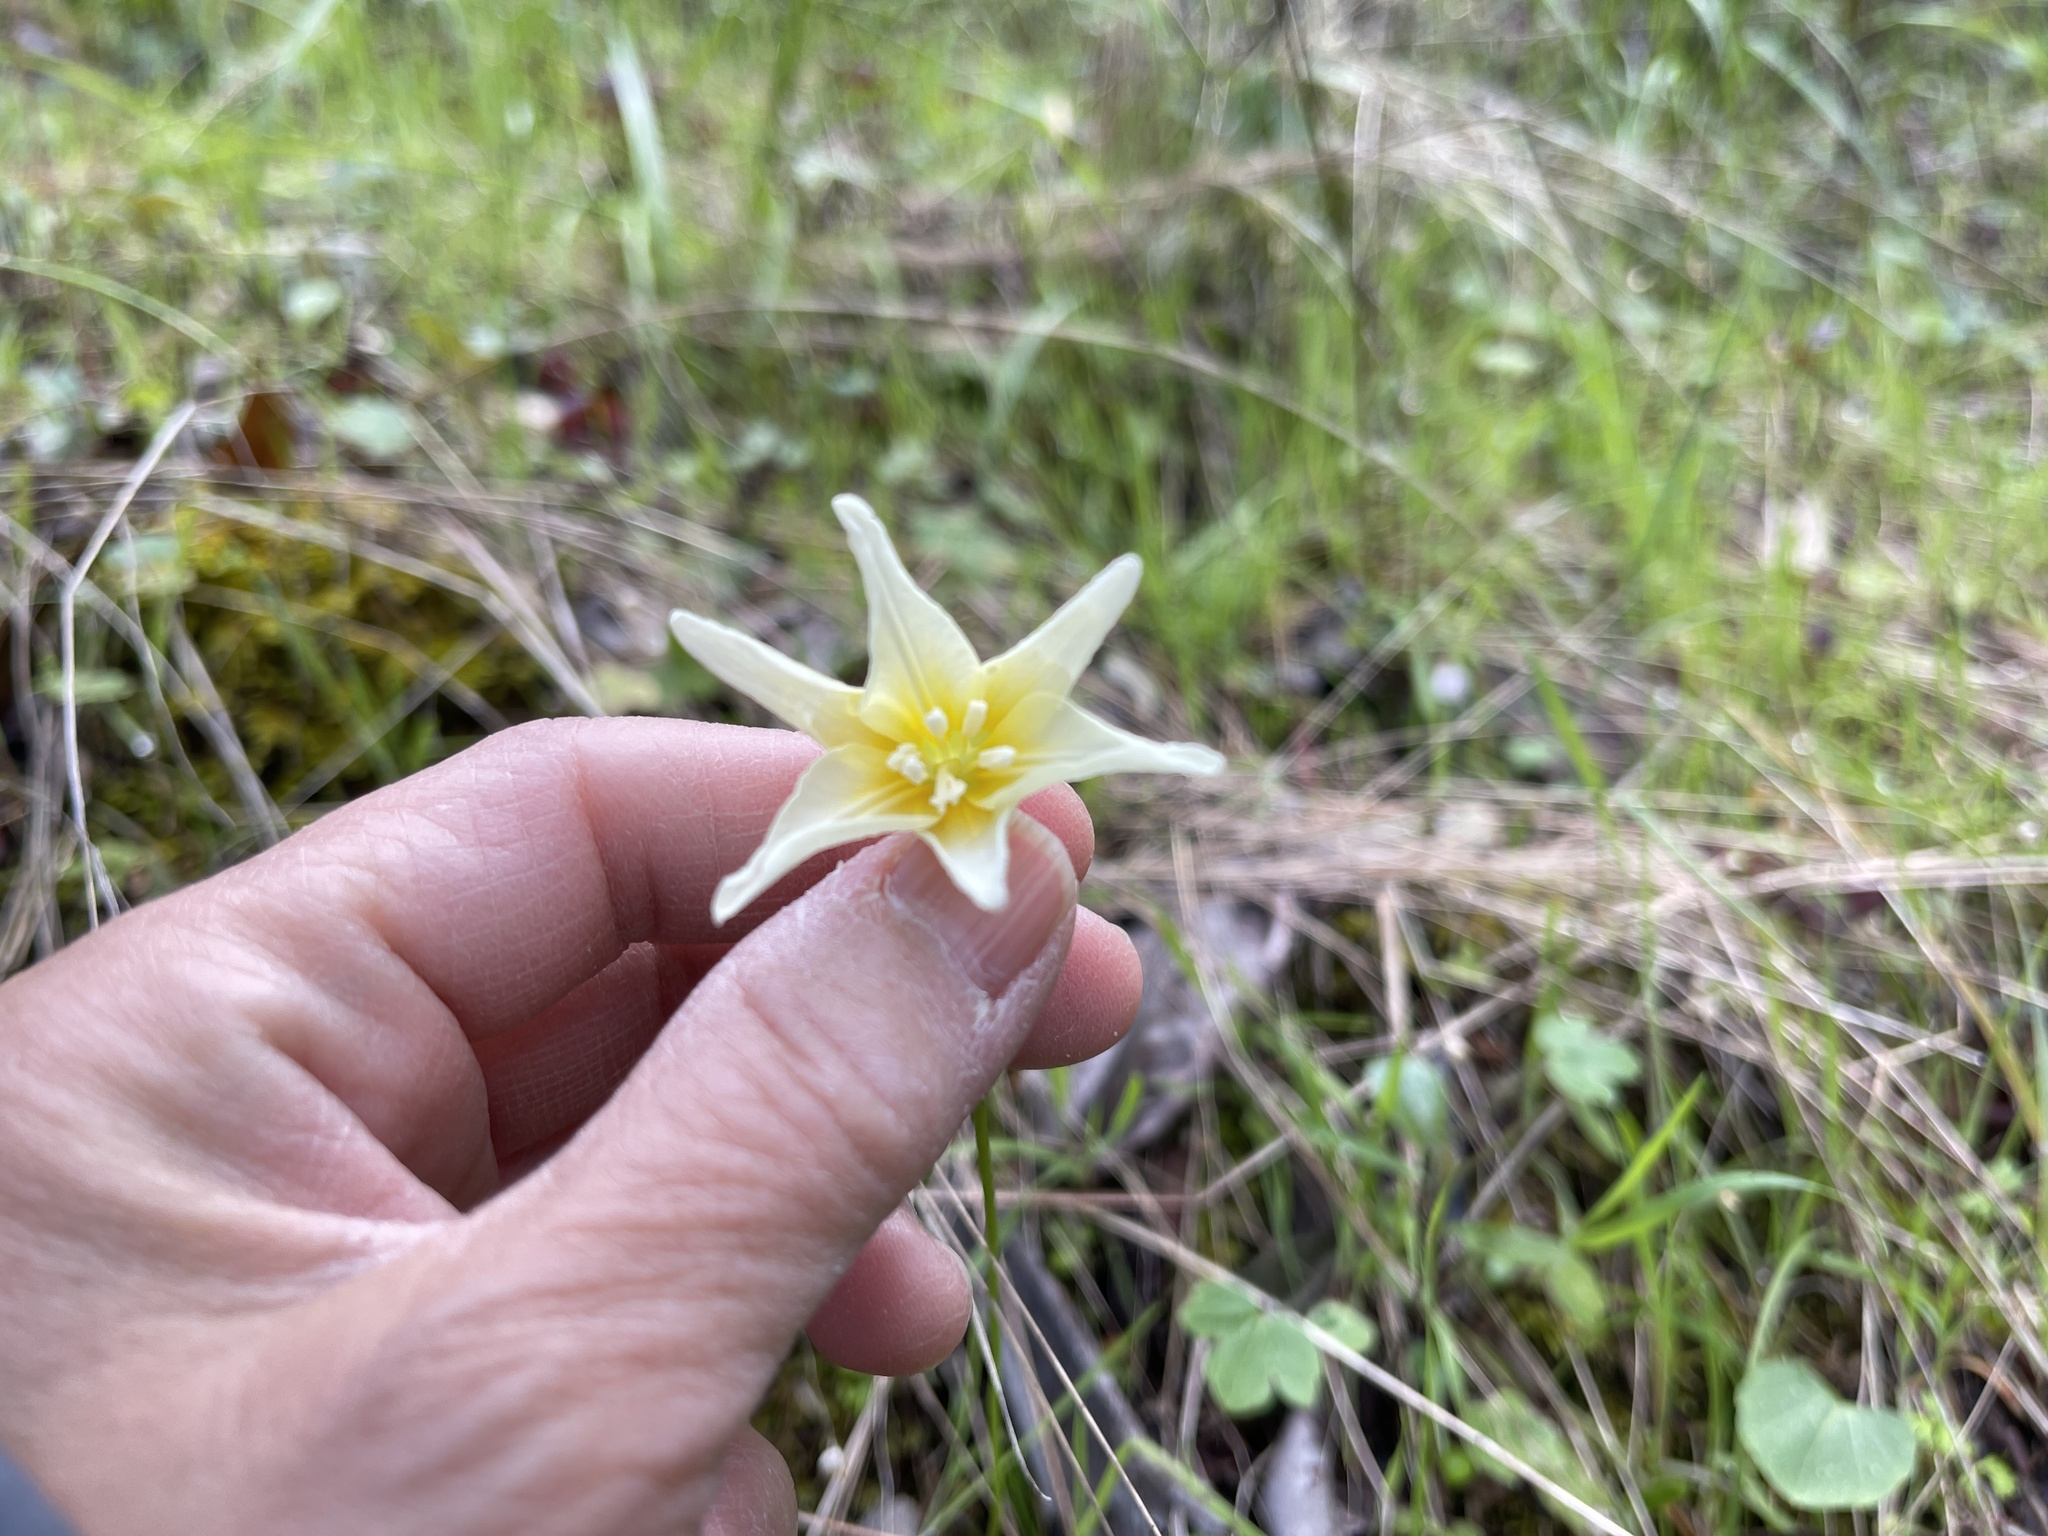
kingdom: Plantae
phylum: Tracheophyta
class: Liliopsida
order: Liliales
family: Liliaceae
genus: Erythronium
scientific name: Erythronium californicum
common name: Fawn-lily
